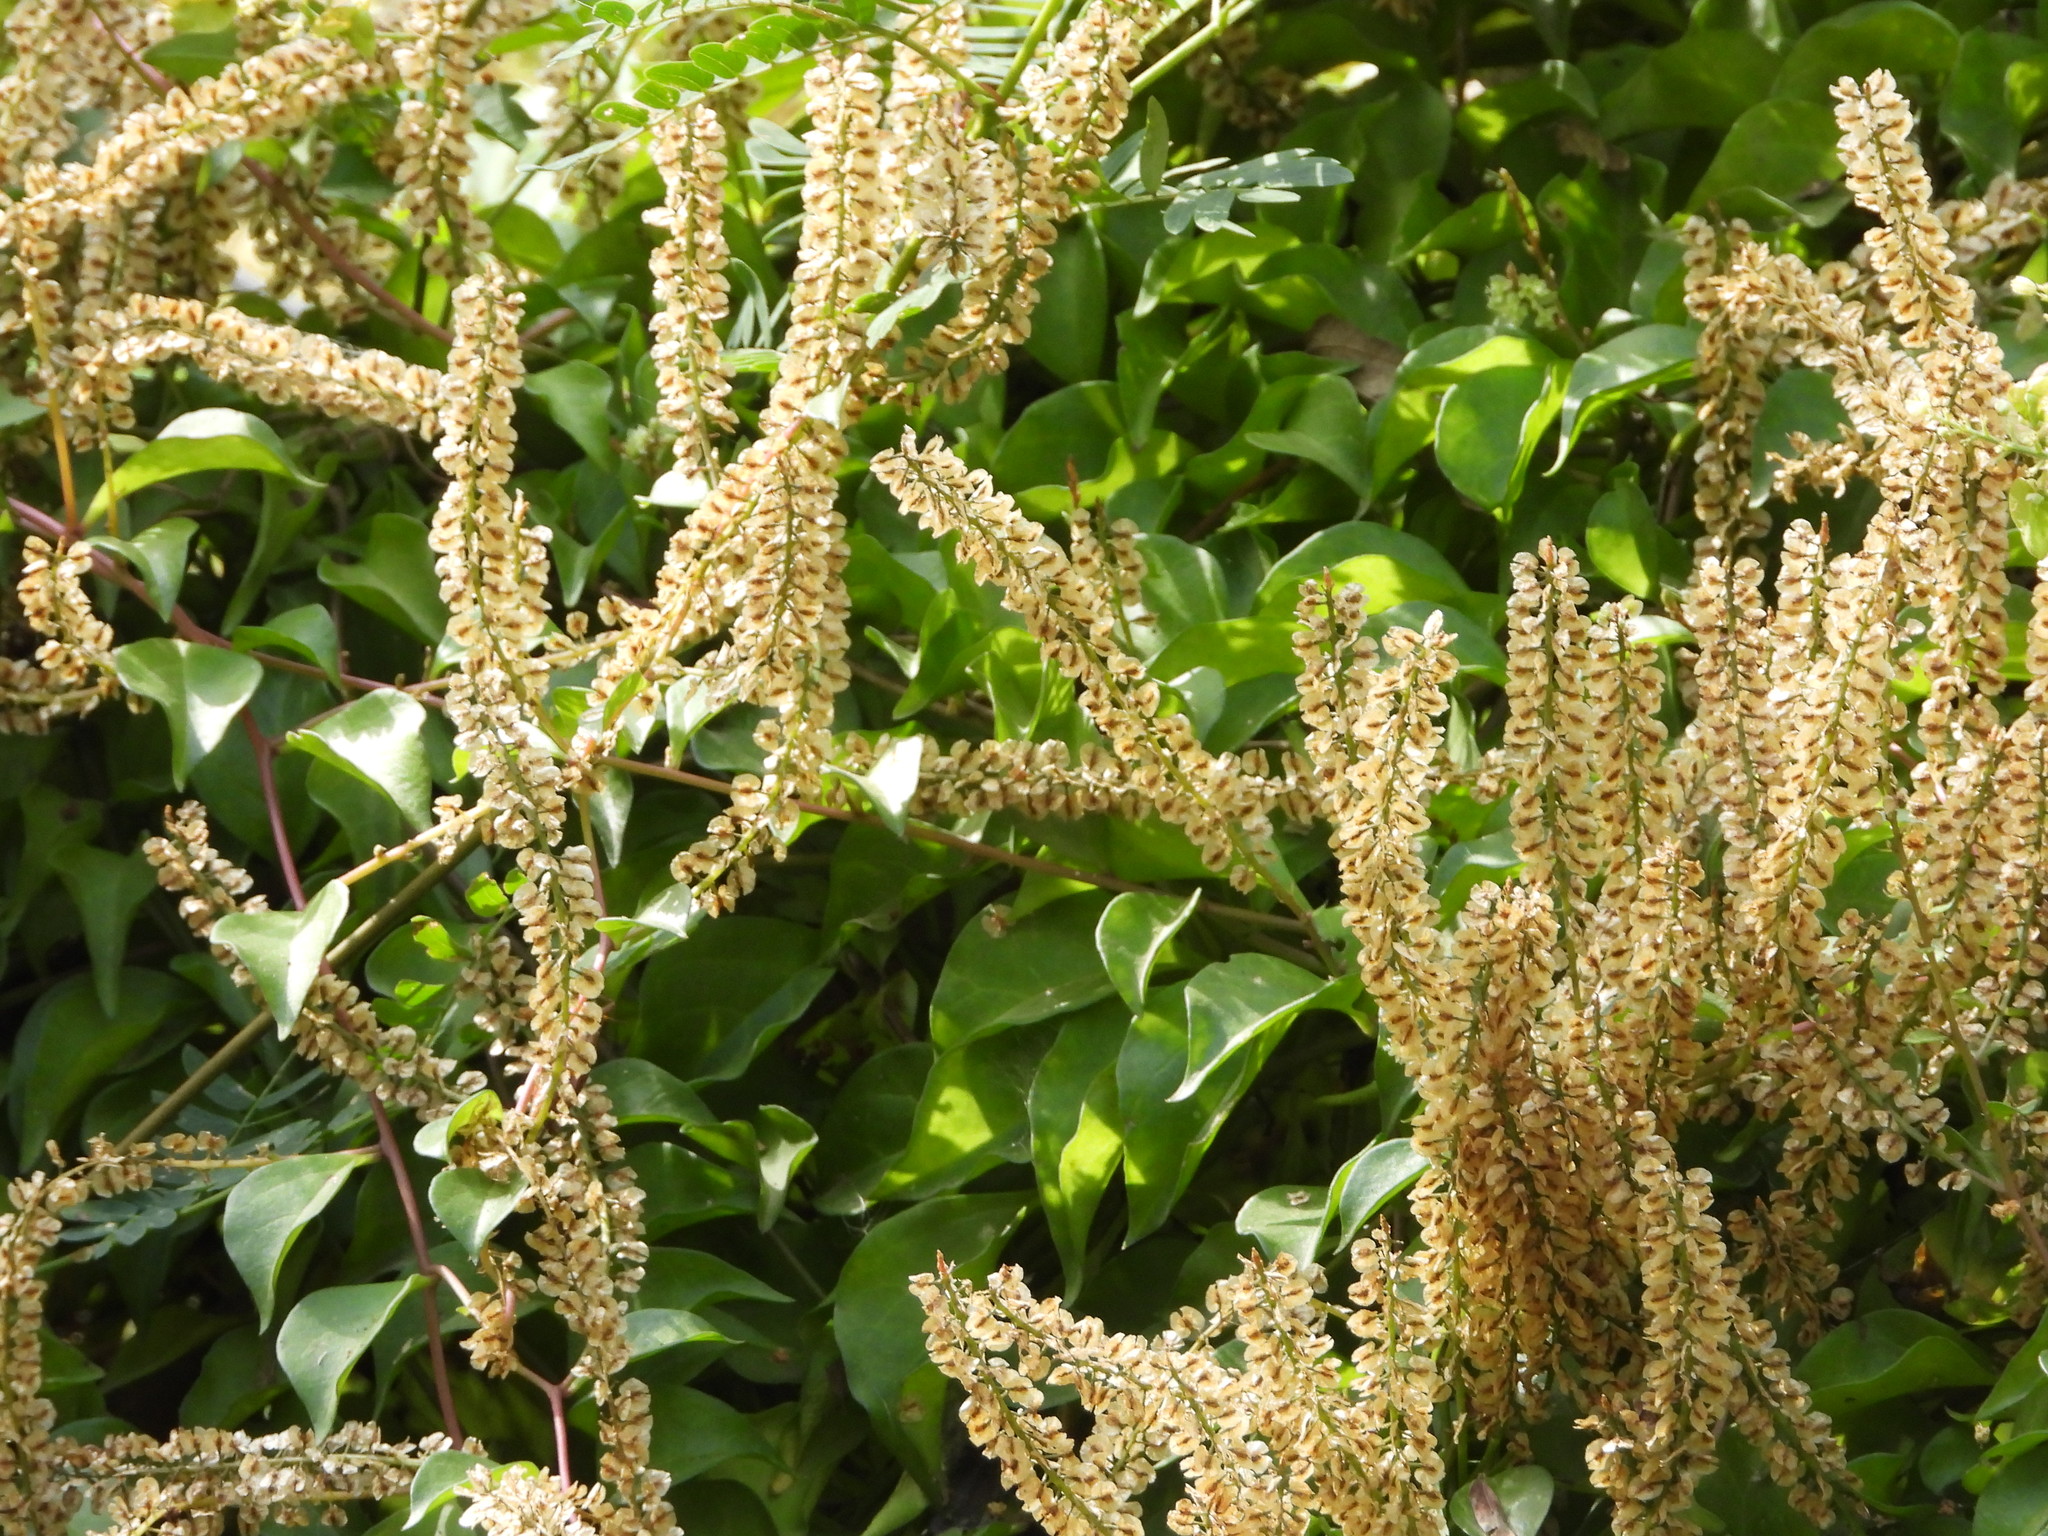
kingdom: Plantae
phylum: Tracheophyta
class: Magnoliopsida
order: Caryophyllales
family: Basellaceae
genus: Anredera
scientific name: Anredera vesicaria
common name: Sacasile
